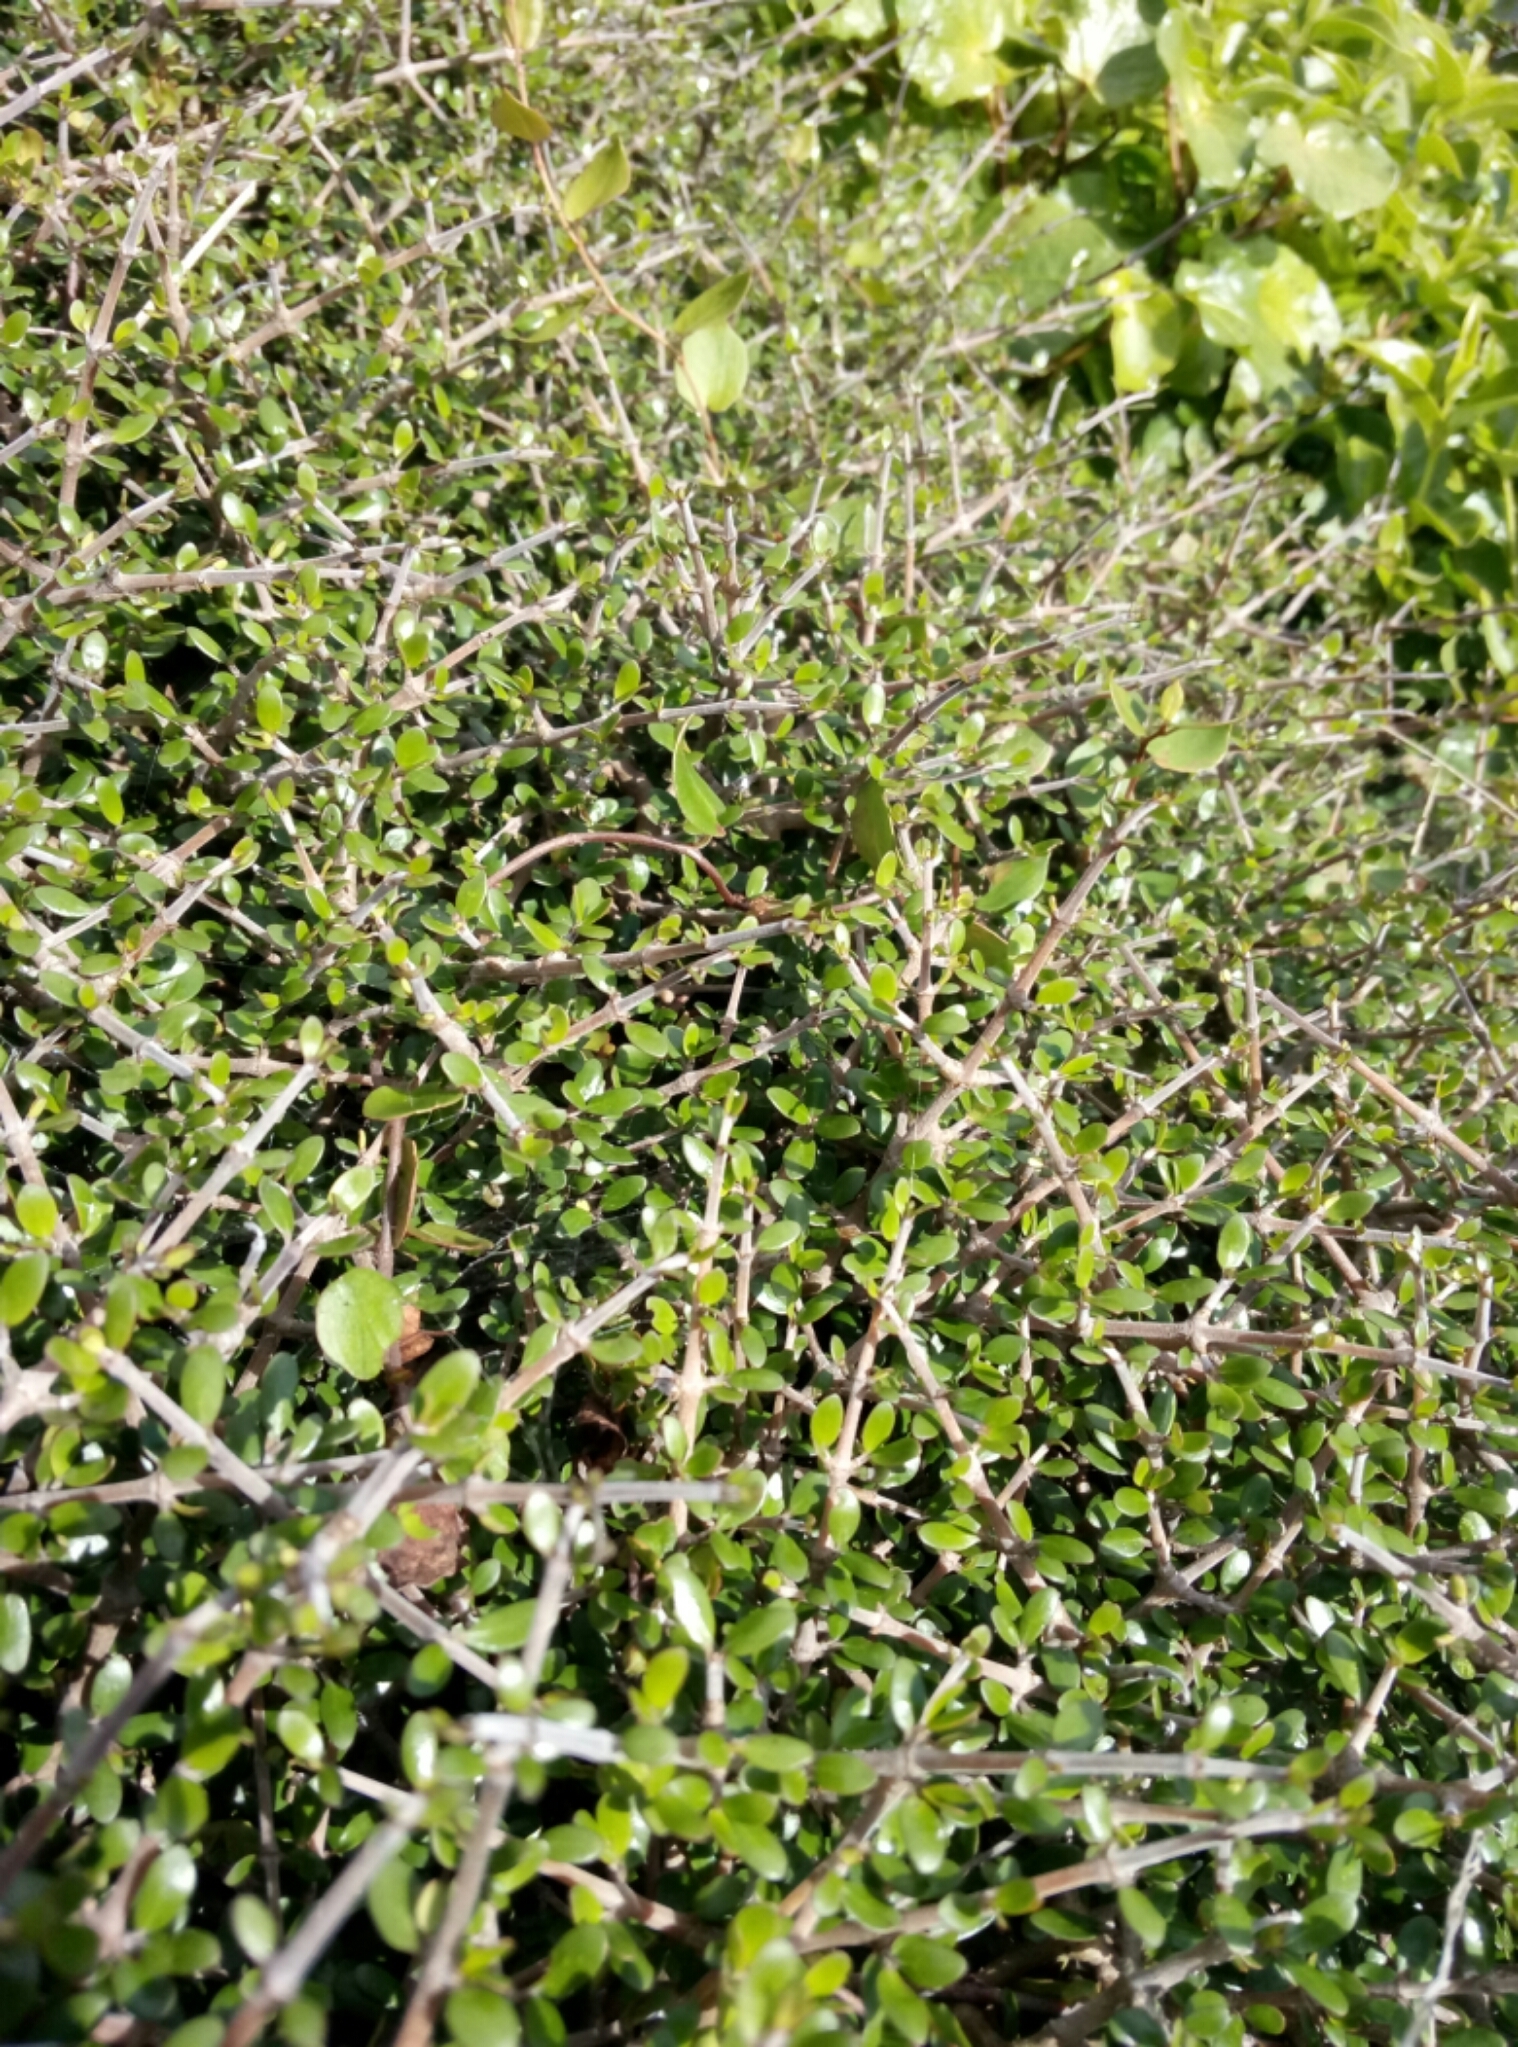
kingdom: Plantae
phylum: Tracheophyta
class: Magnoliopsida
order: Caryophyllales
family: Polygonaceae
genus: Muehlenbeckia
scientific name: Muehlenbeckia australis
